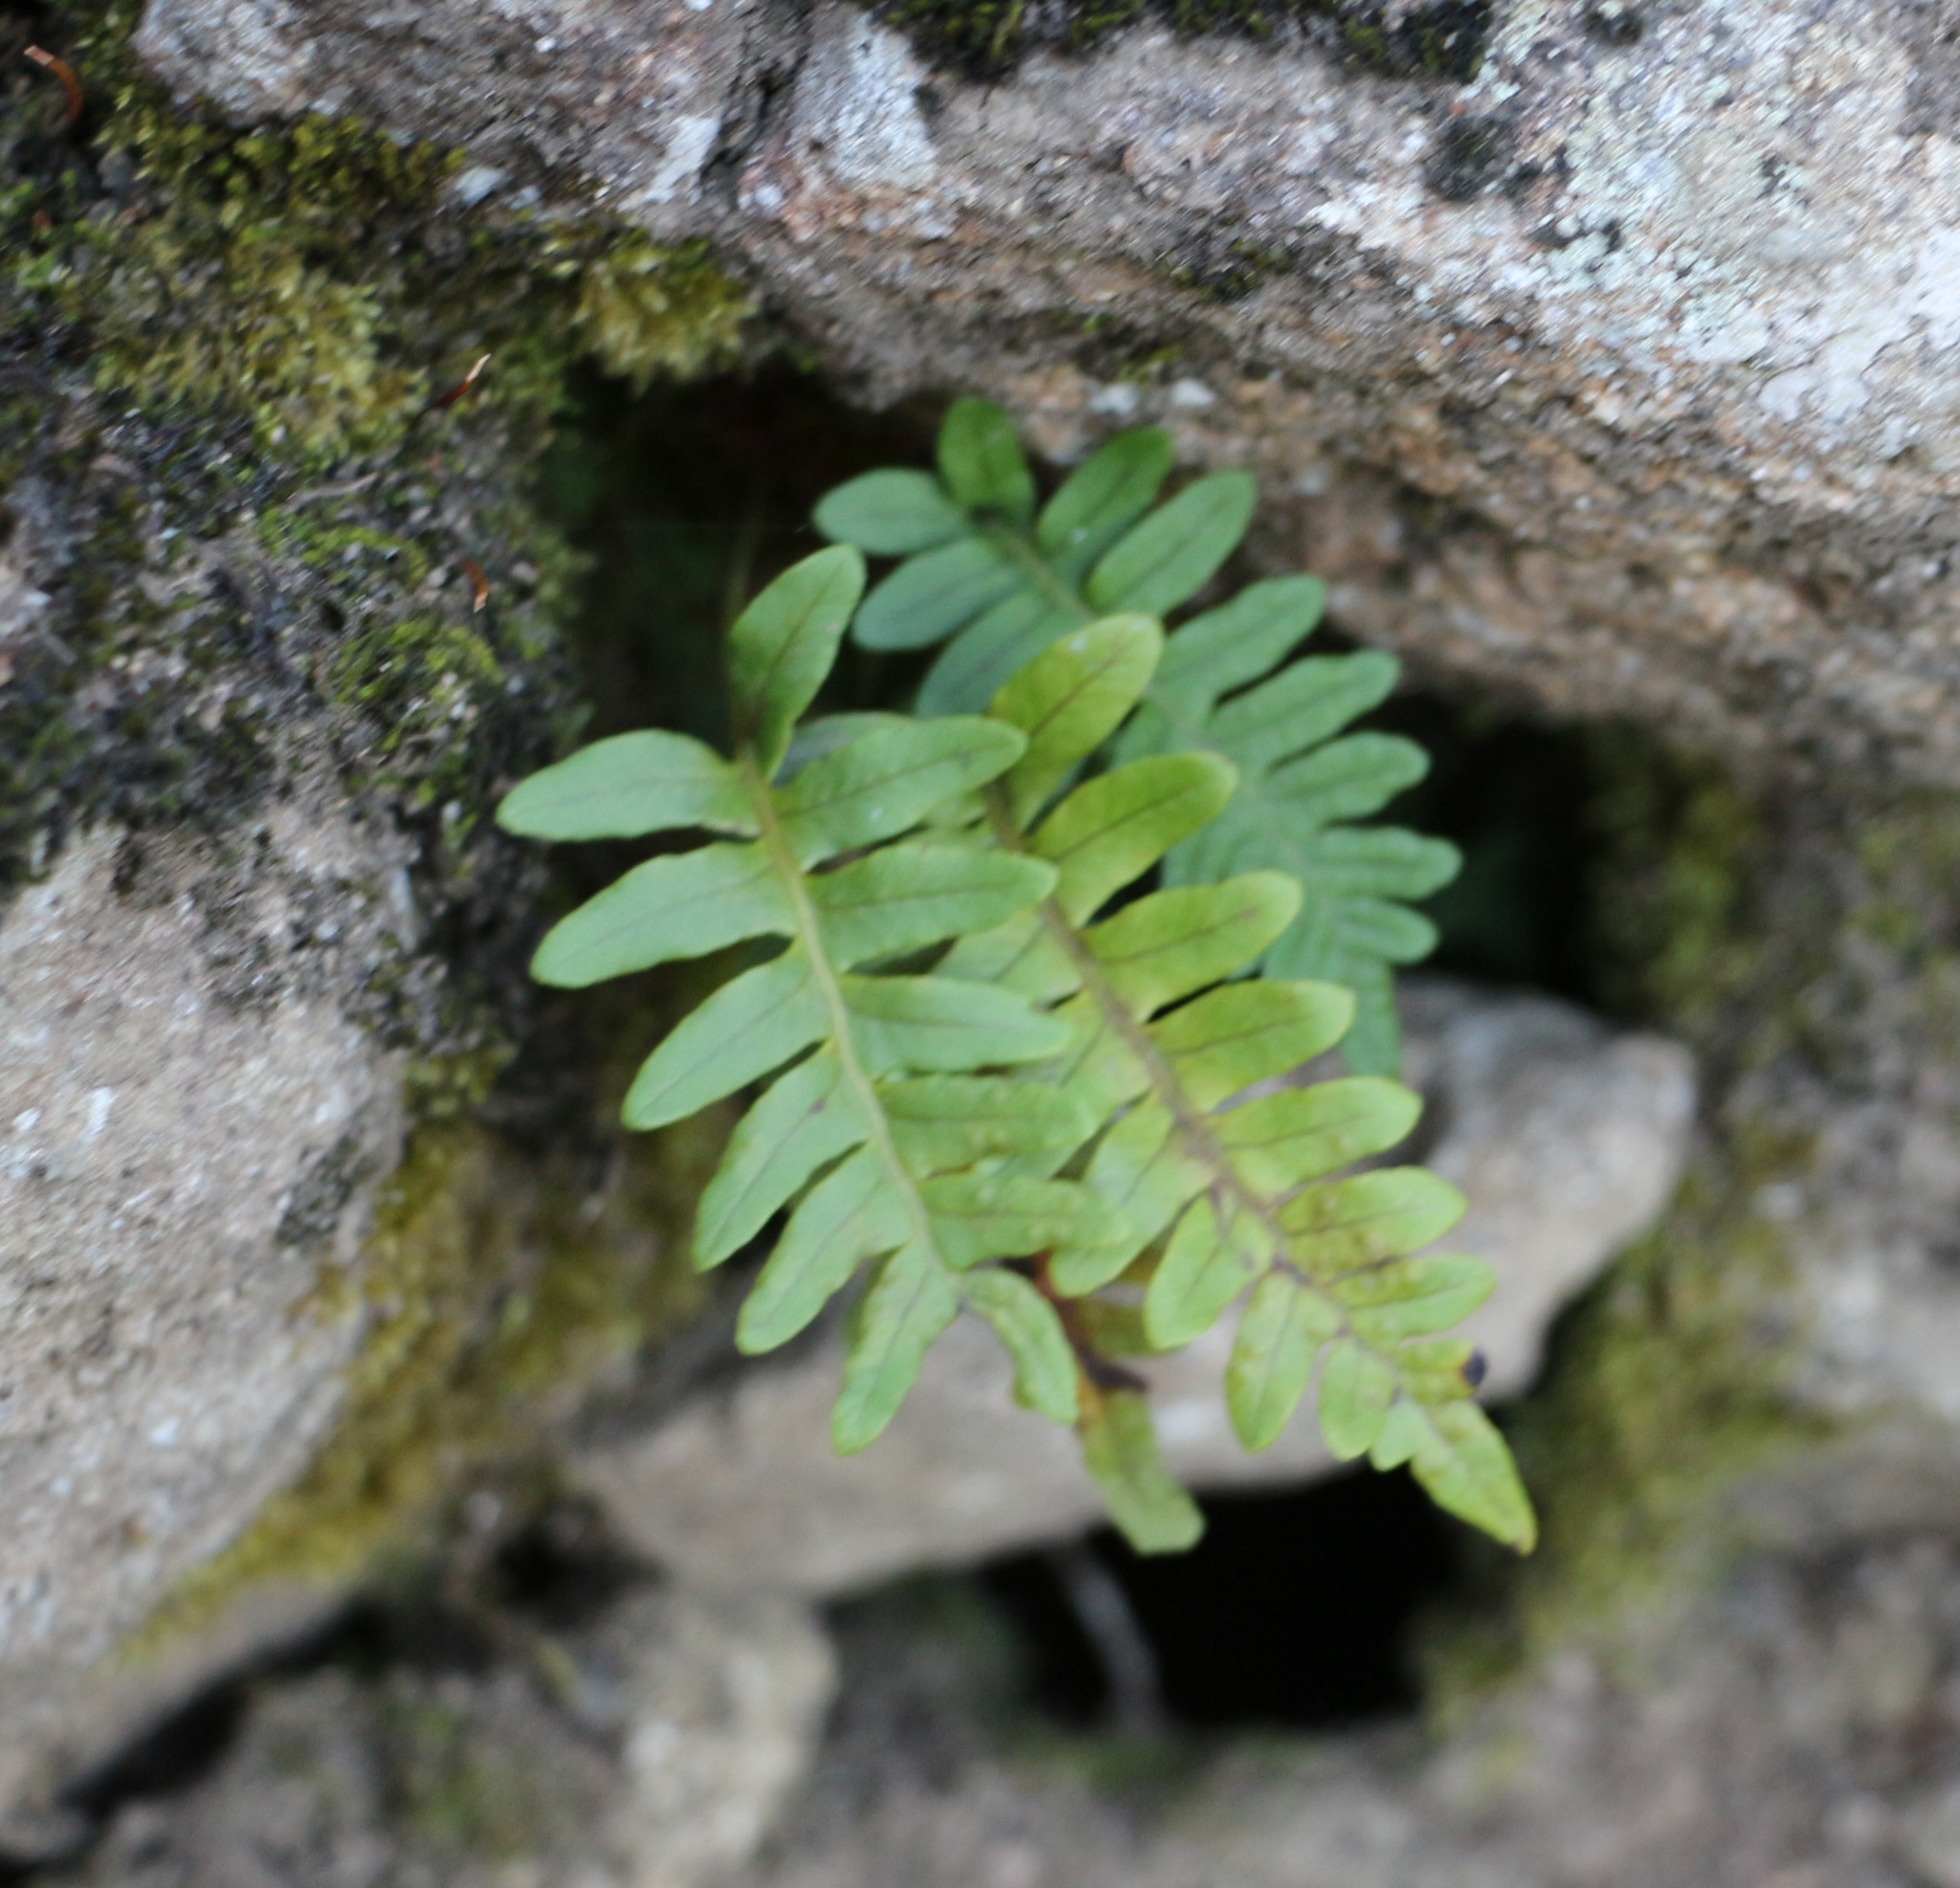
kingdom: Plantae
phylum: Tracheophyta
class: Polypodiopsida
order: Polypodiales
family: Polypodiaceae
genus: Polypodium
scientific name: Polypodium vulgare
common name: Common polypody
